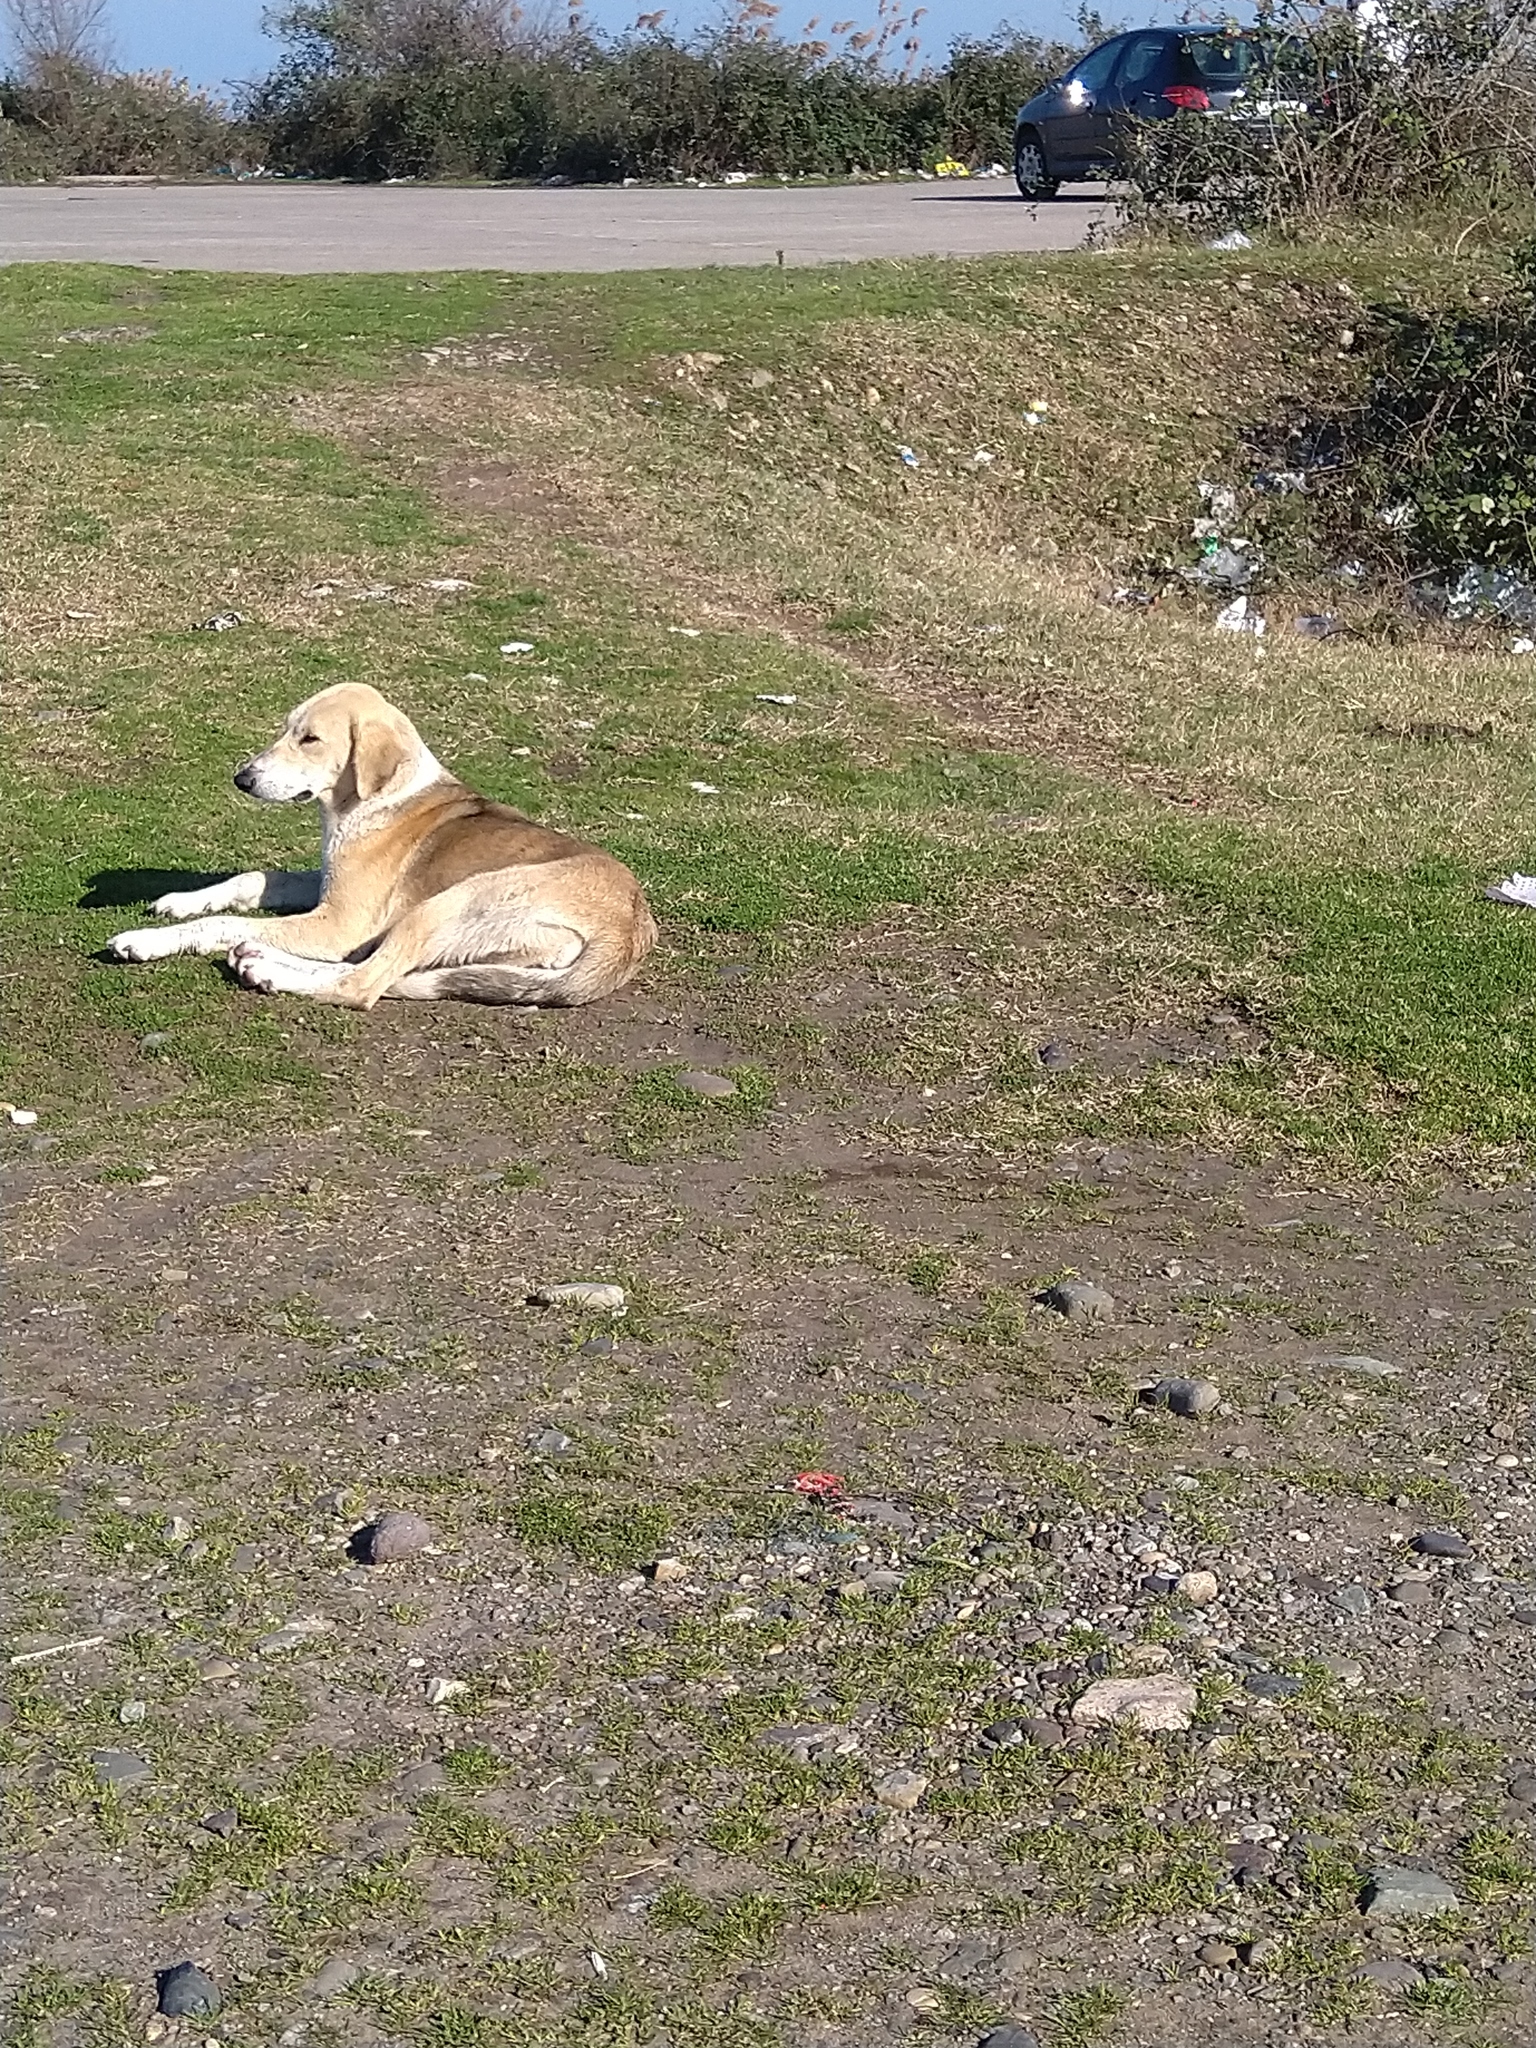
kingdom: Animalia
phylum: Chordata
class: Mammalia
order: Carnivora
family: Canidae
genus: Canis
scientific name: Canis lupus
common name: Gray wolf
